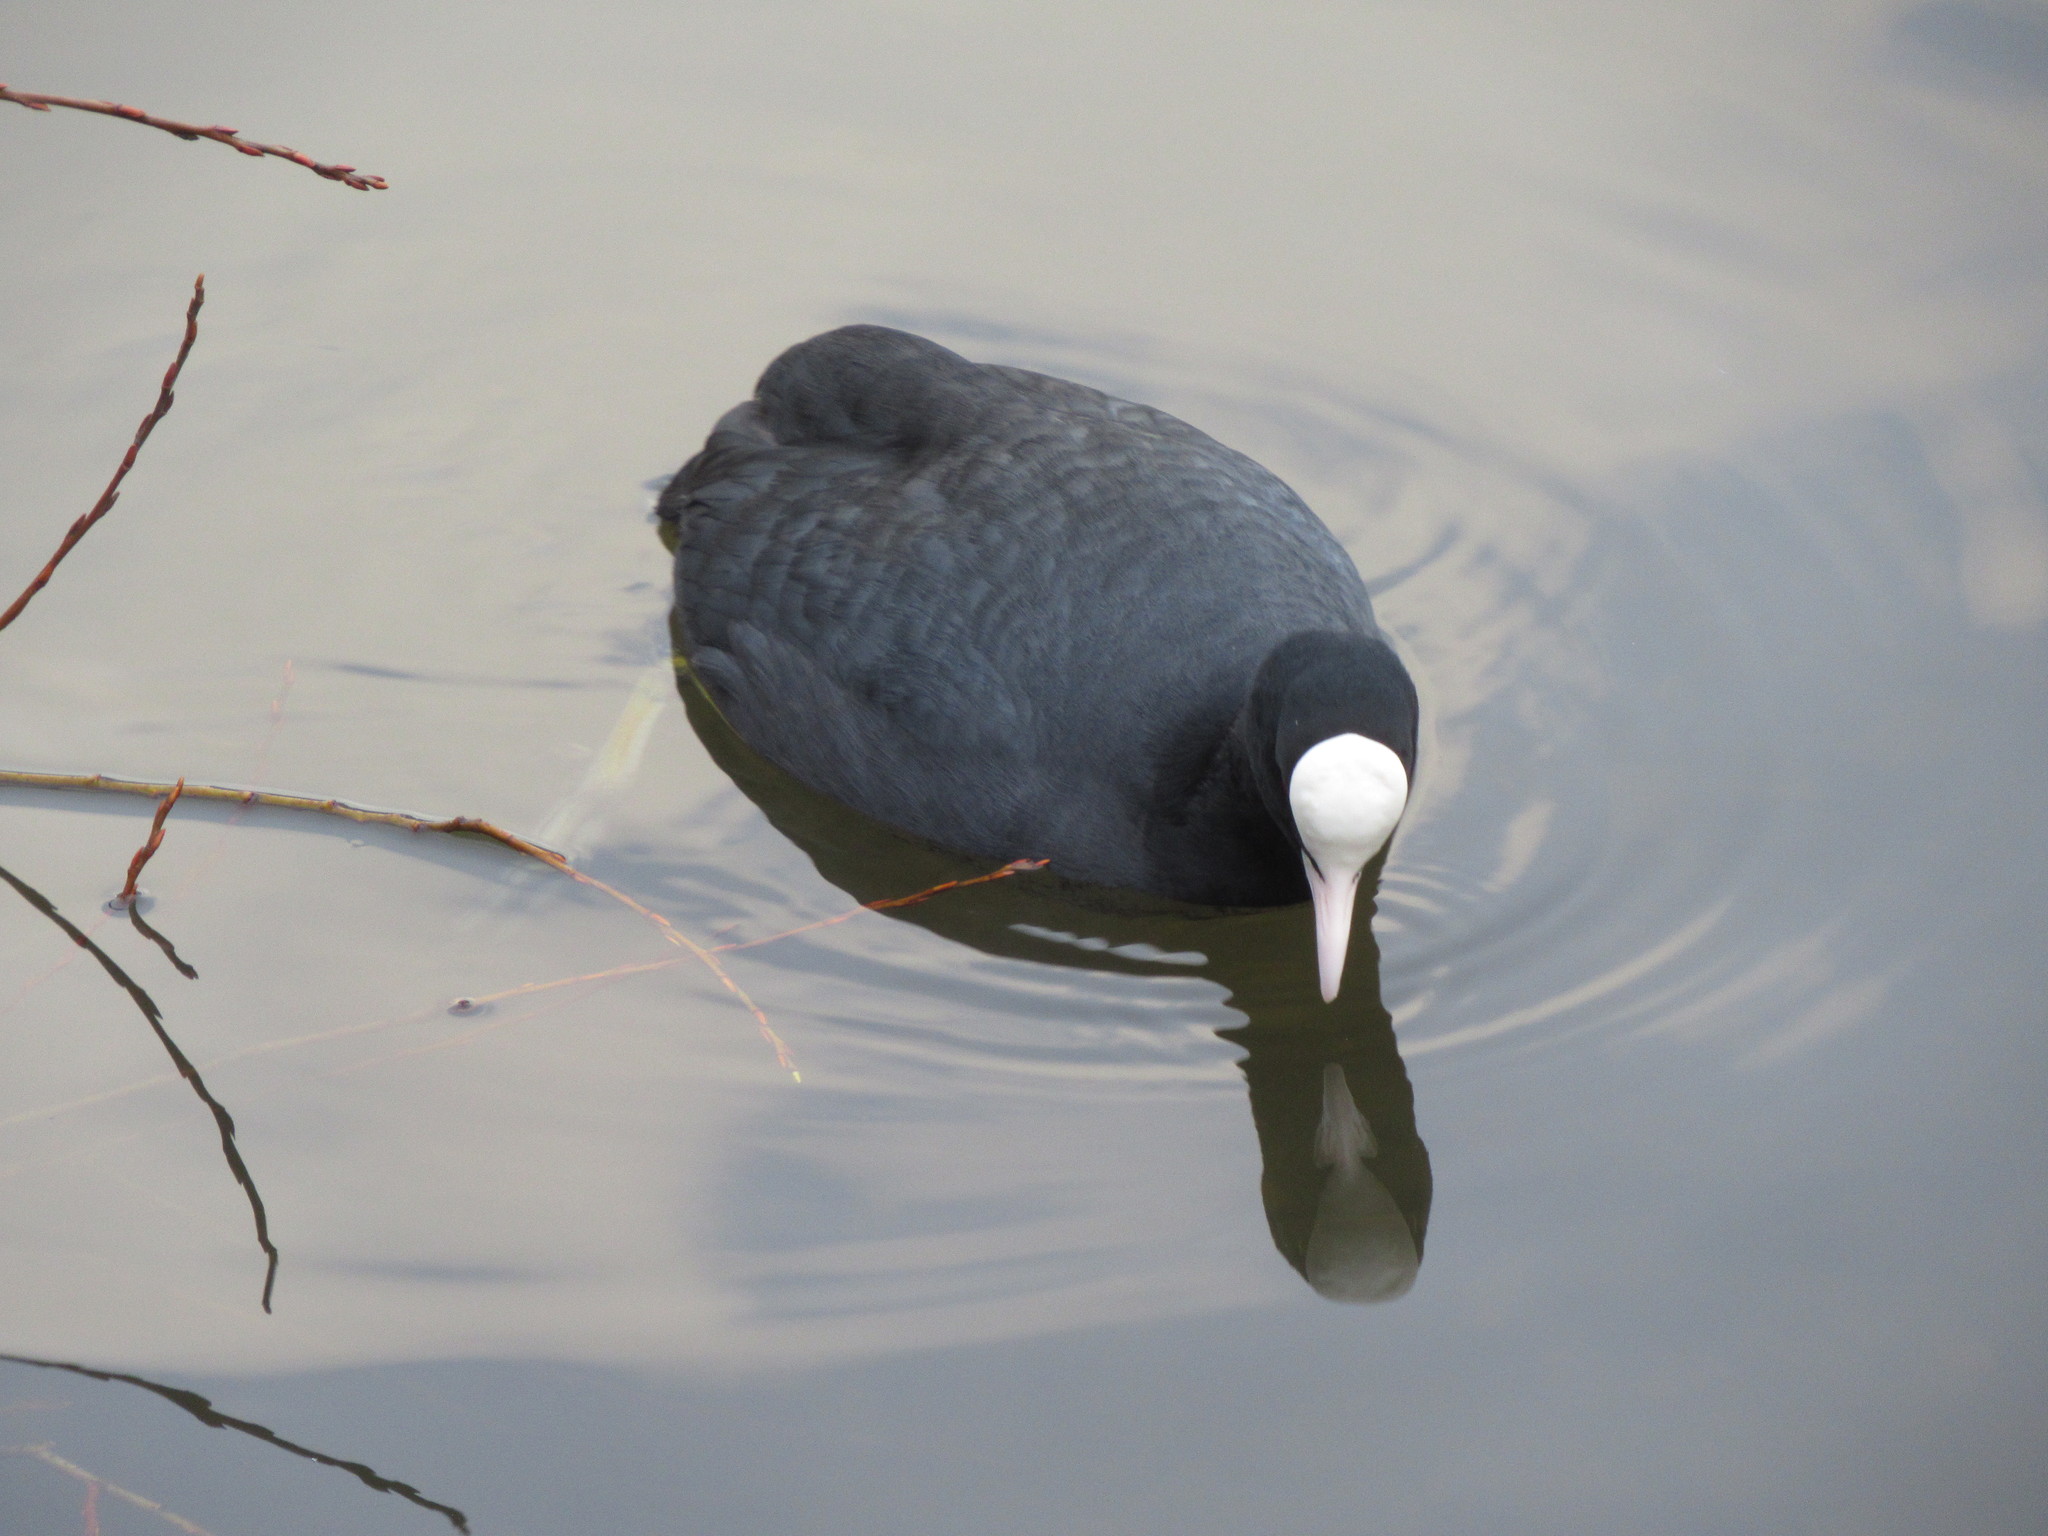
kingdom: Animalia
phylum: Chordata
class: Aves
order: Gruiformes
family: Rallidae
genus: Fulica
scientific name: Fulica atra
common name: Eurasian coot
